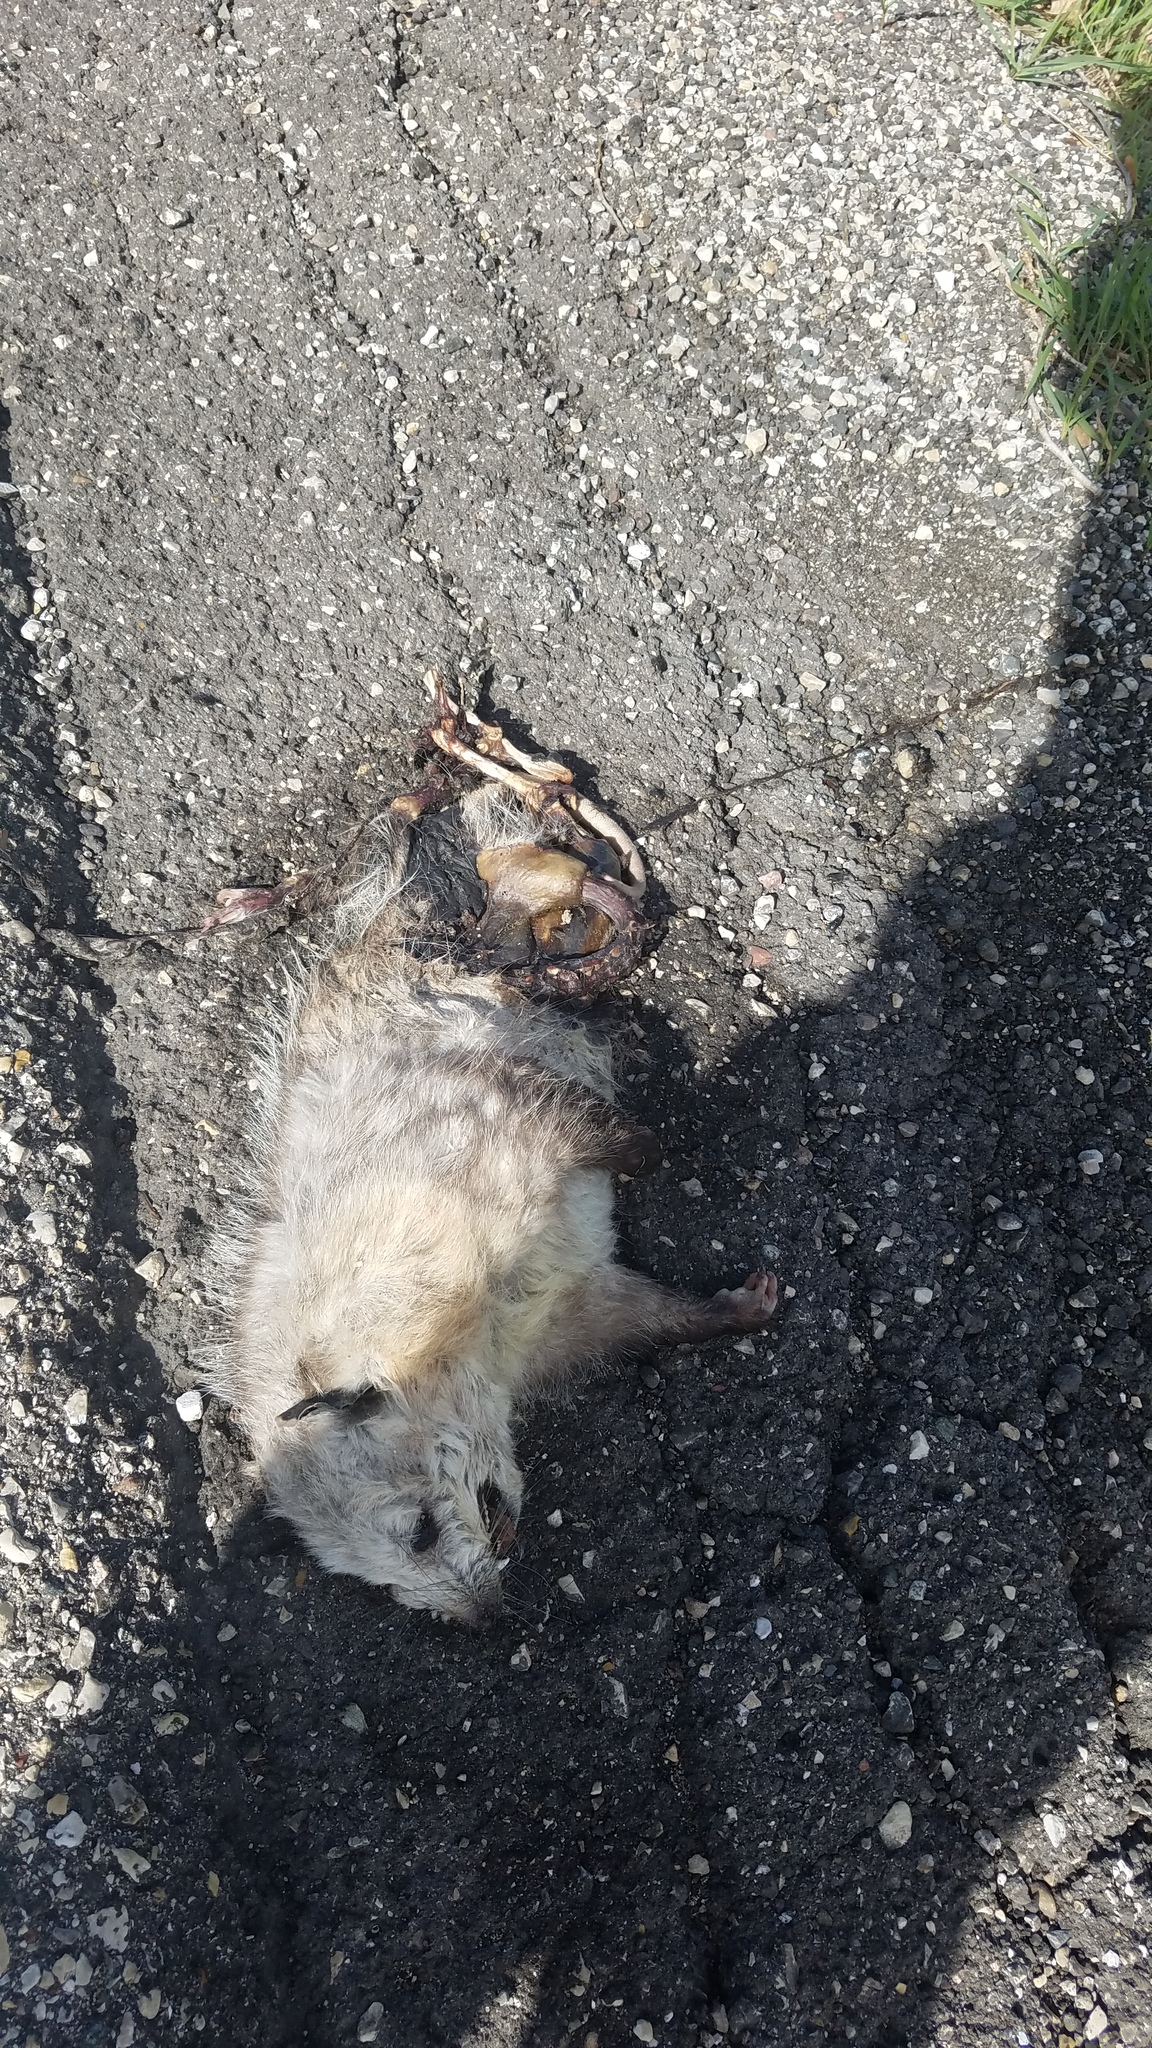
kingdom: Animalia
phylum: Chordata
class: Mammalia
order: Didelphimorphia
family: Didelphidae
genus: Didelphis
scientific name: Didelphis virginiana
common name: Virginia opossum
